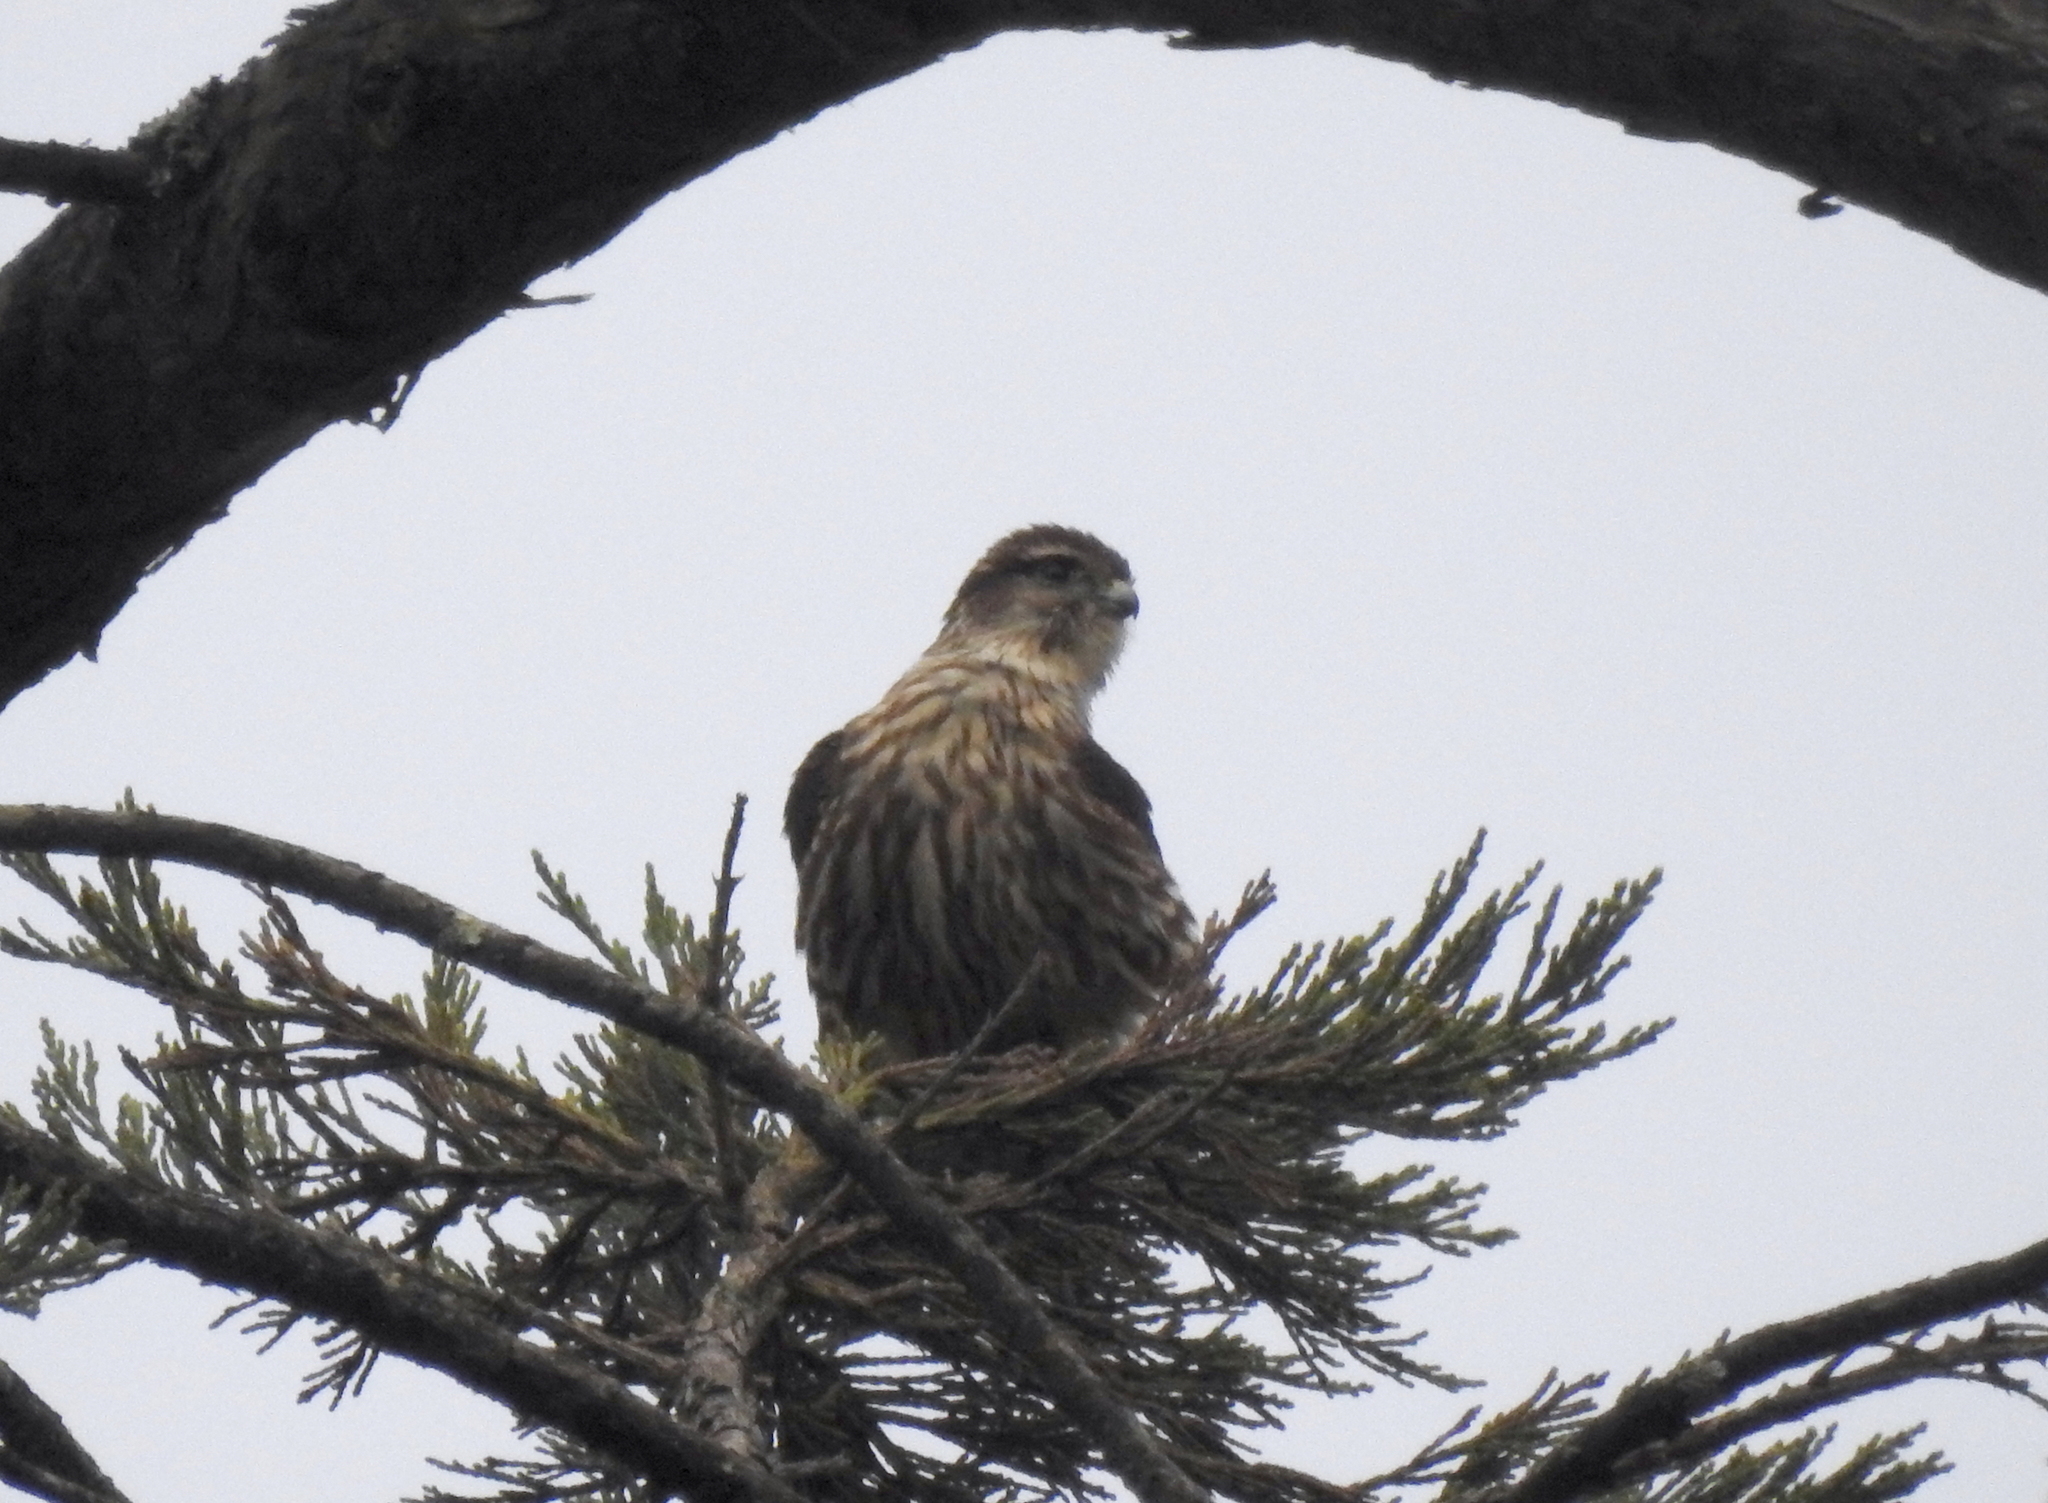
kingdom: Animalia
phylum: Chordata
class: Aves
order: Falconiformes
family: Falconidae
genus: Falco
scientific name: Falco columbarius
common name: Merlin
